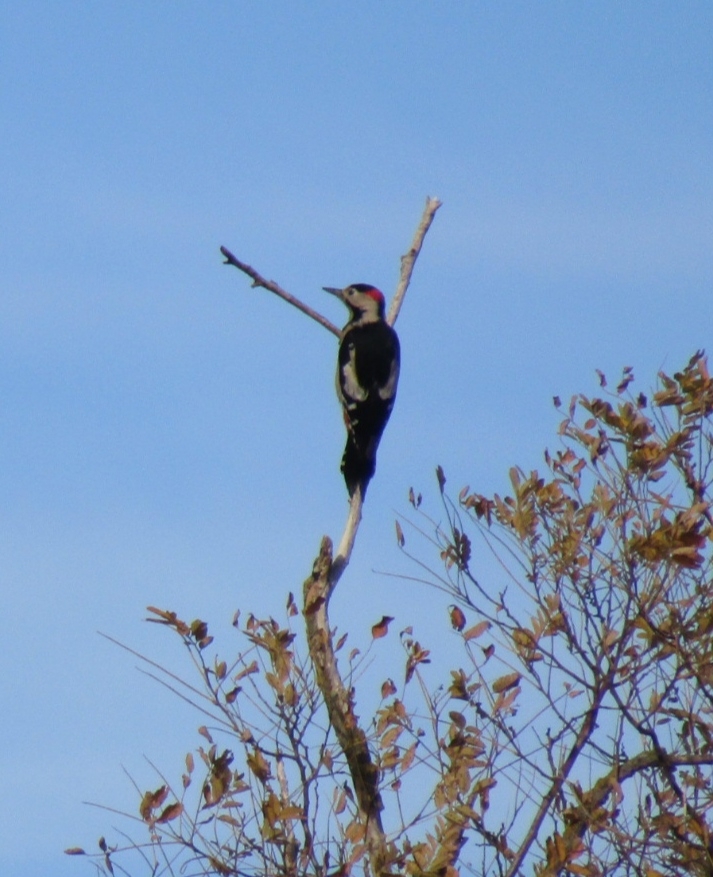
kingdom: Animalia
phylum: Chordata
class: Aves
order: Piciformes
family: Picidae
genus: Dendrocopos
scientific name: Dendrocopos syriacus
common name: Syrian woodpecker
